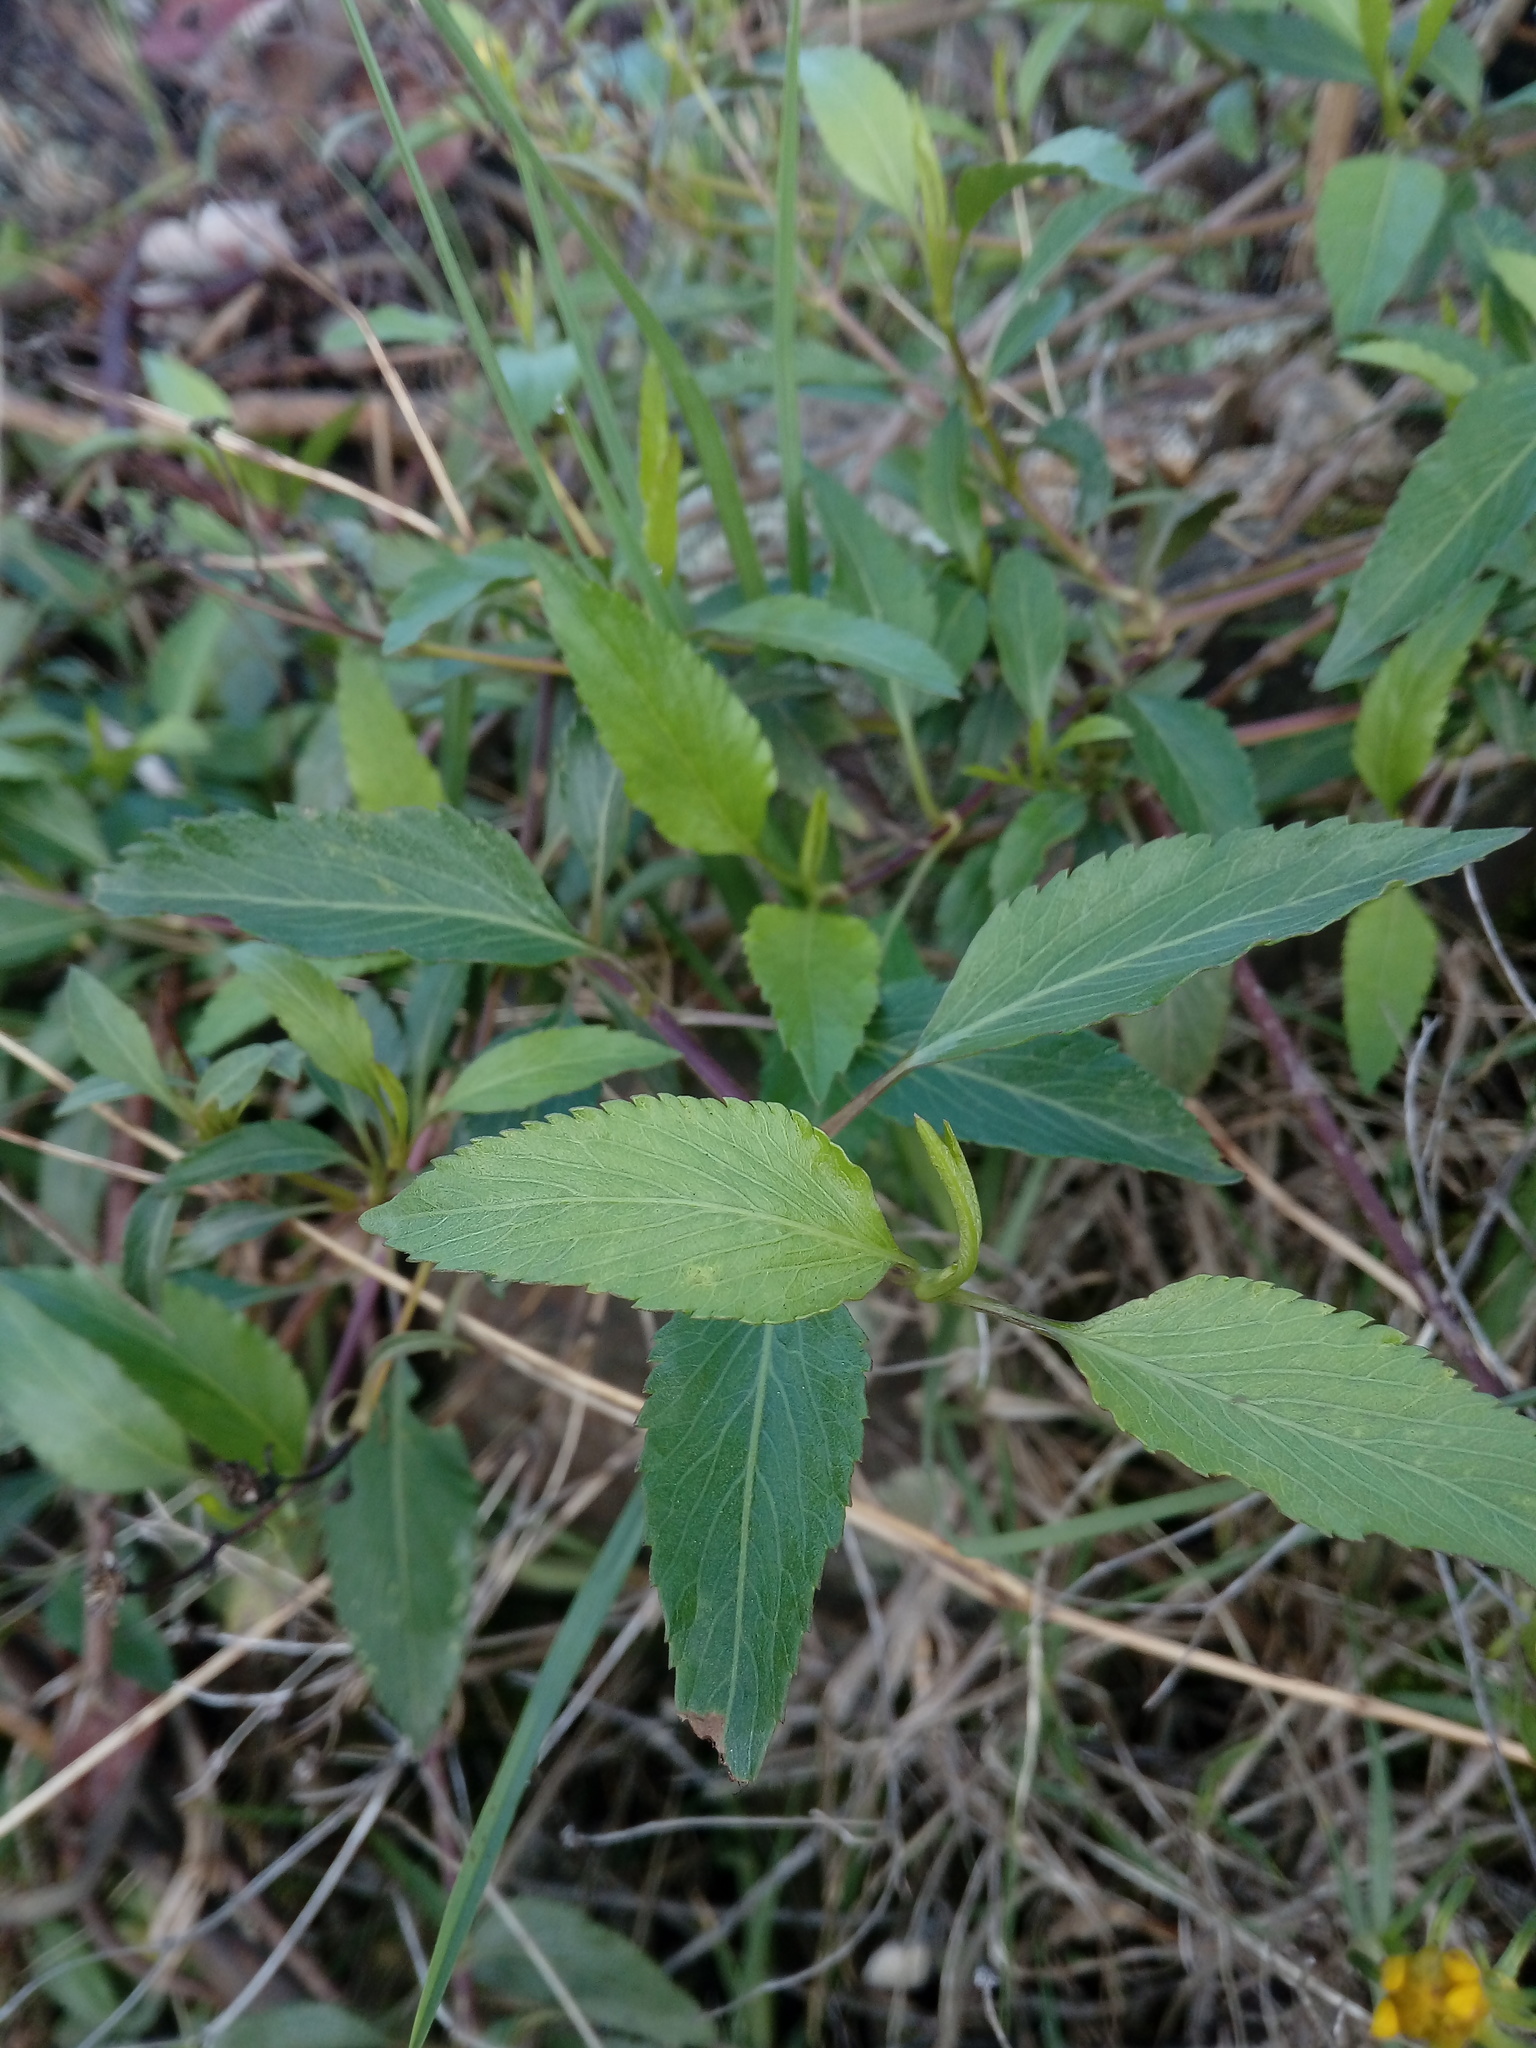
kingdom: Plantae
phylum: Tracheophyta
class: Magnoliopsida
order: Asterales
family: Asteraceae
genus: Bidens
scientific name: Bidens reptans
